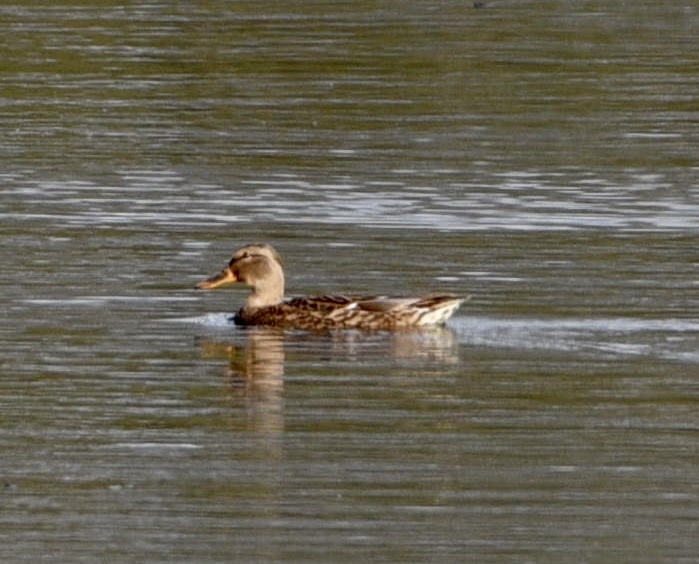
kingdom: Animalia
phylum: Chordata
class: Aves
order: Anseriformes
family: Anatidae
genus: Anas
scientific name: Anas platyrhynchos
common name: Mallard
